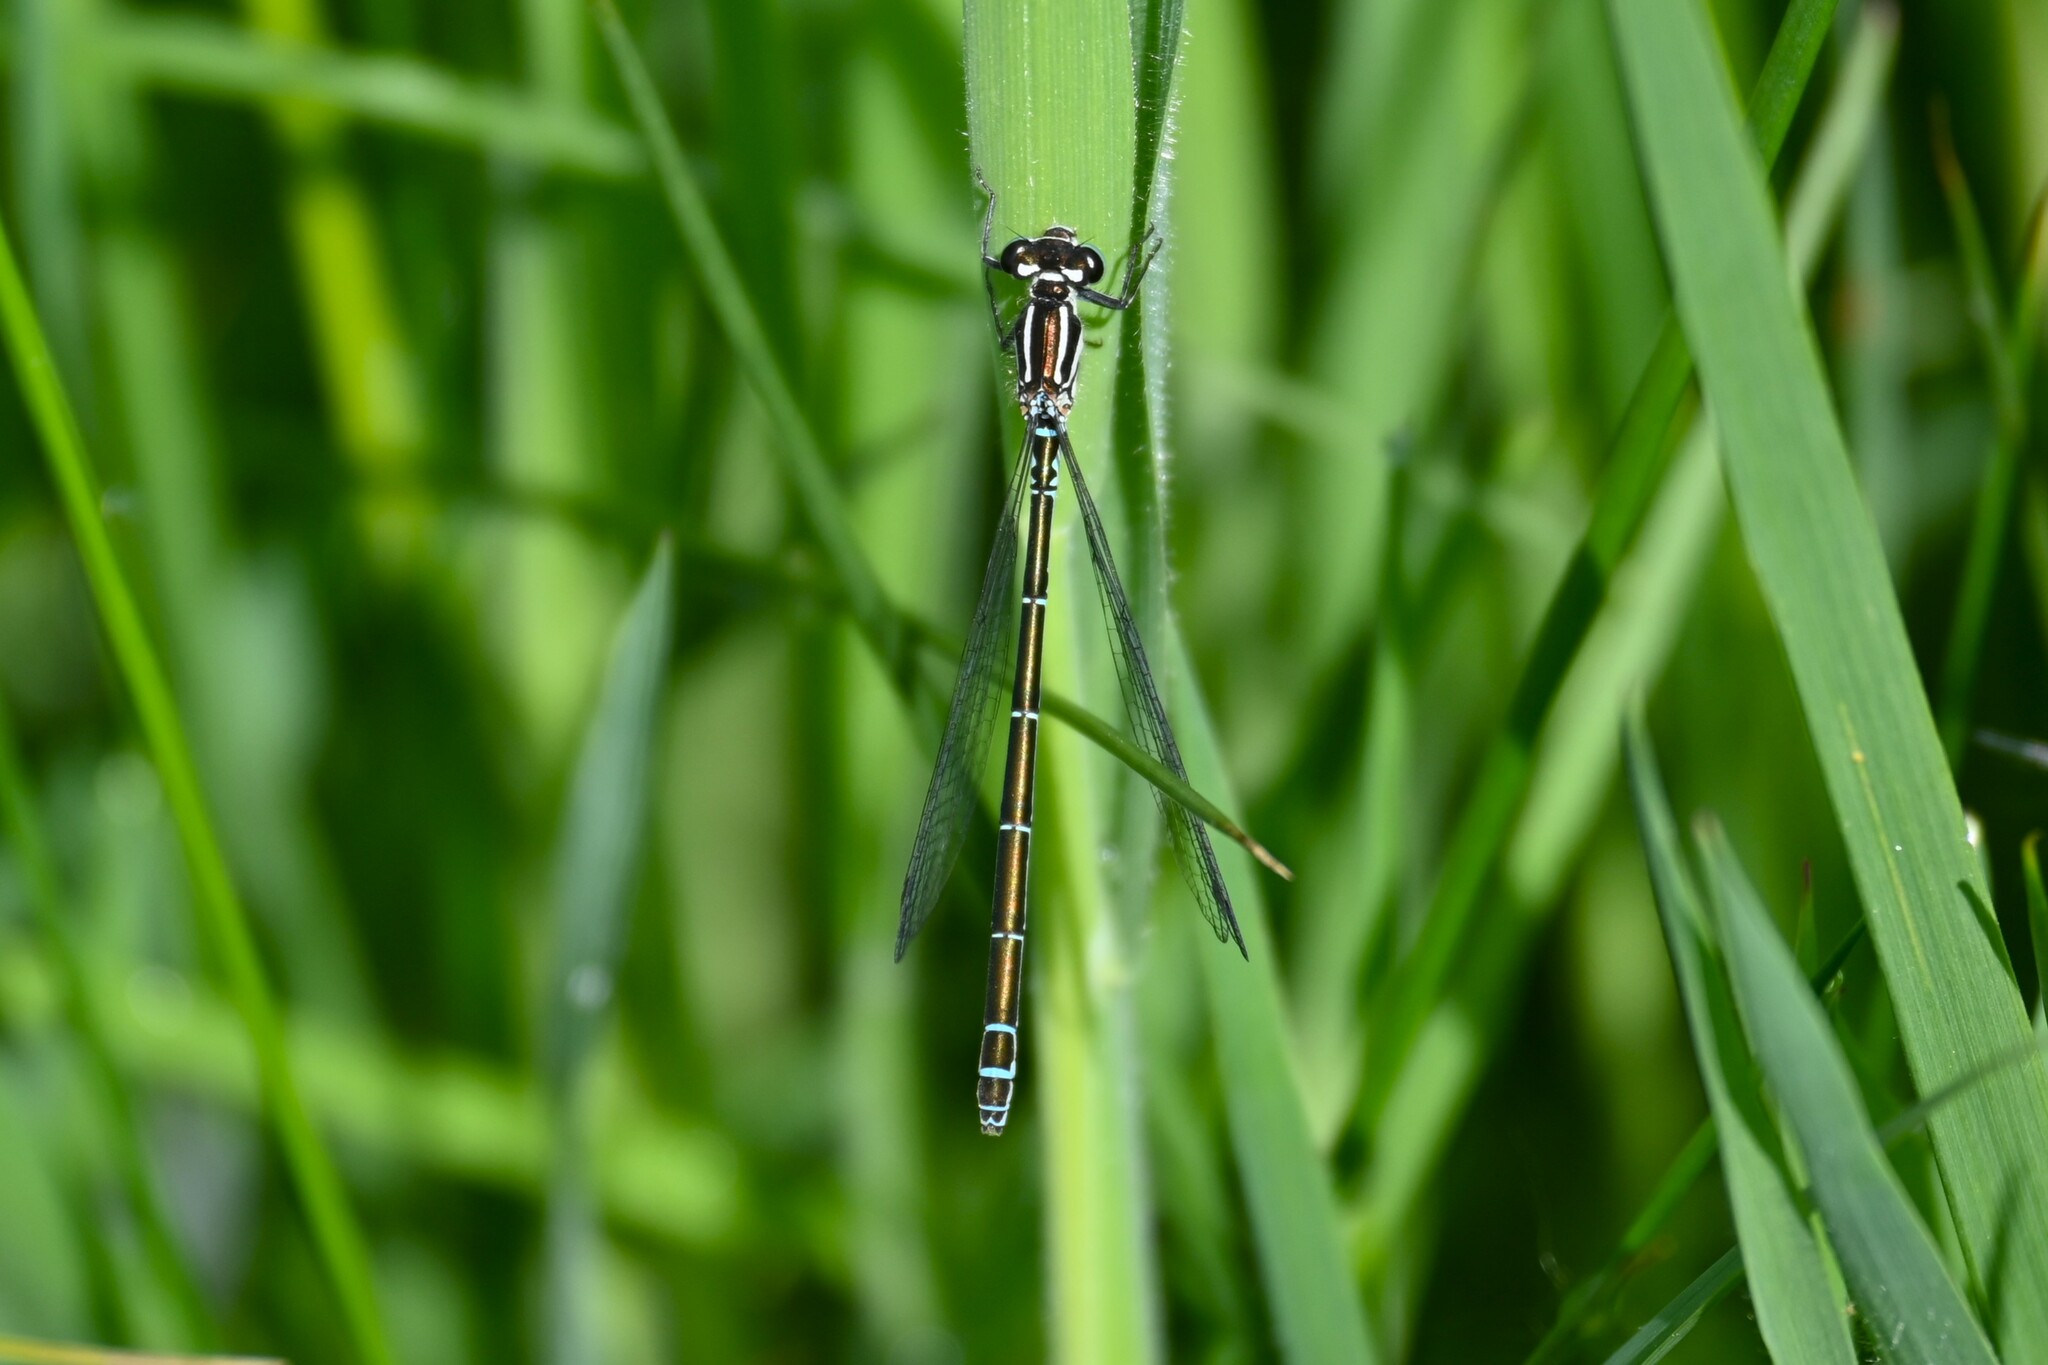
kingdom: Animalia
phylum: Arthropoda
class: Insecta
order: Odonata
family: Coenagrionidae
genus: Coenagrion
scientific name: Coenagrion puella
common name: Azure damselfly
